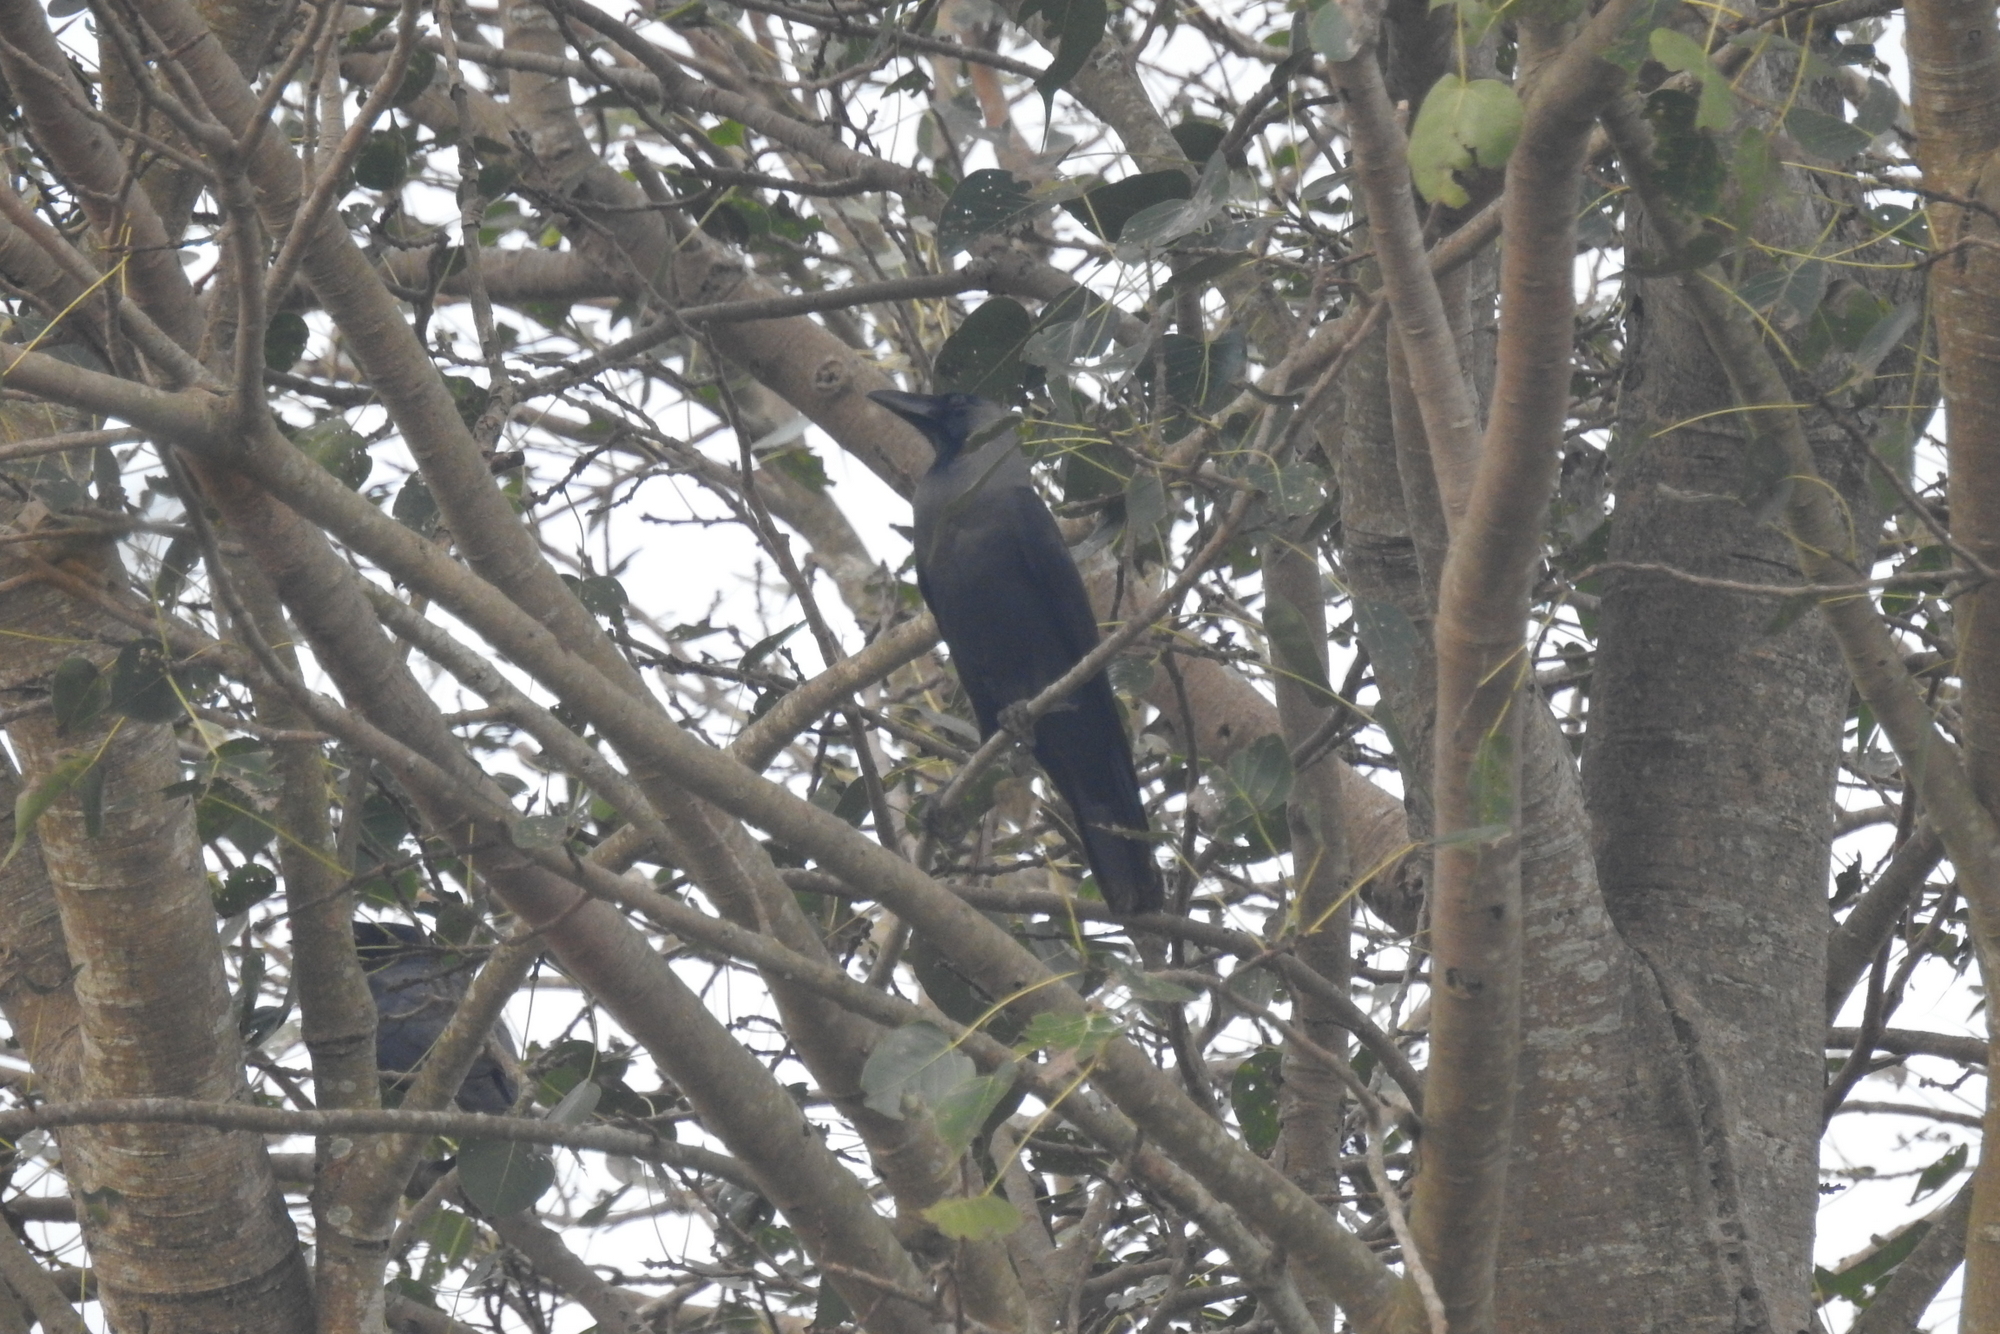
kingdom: Animalia
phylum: Chordata
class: Aves
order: Passeriformes
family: Corvidae
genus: Corvus
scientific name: Corvus splendens
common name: House crow
